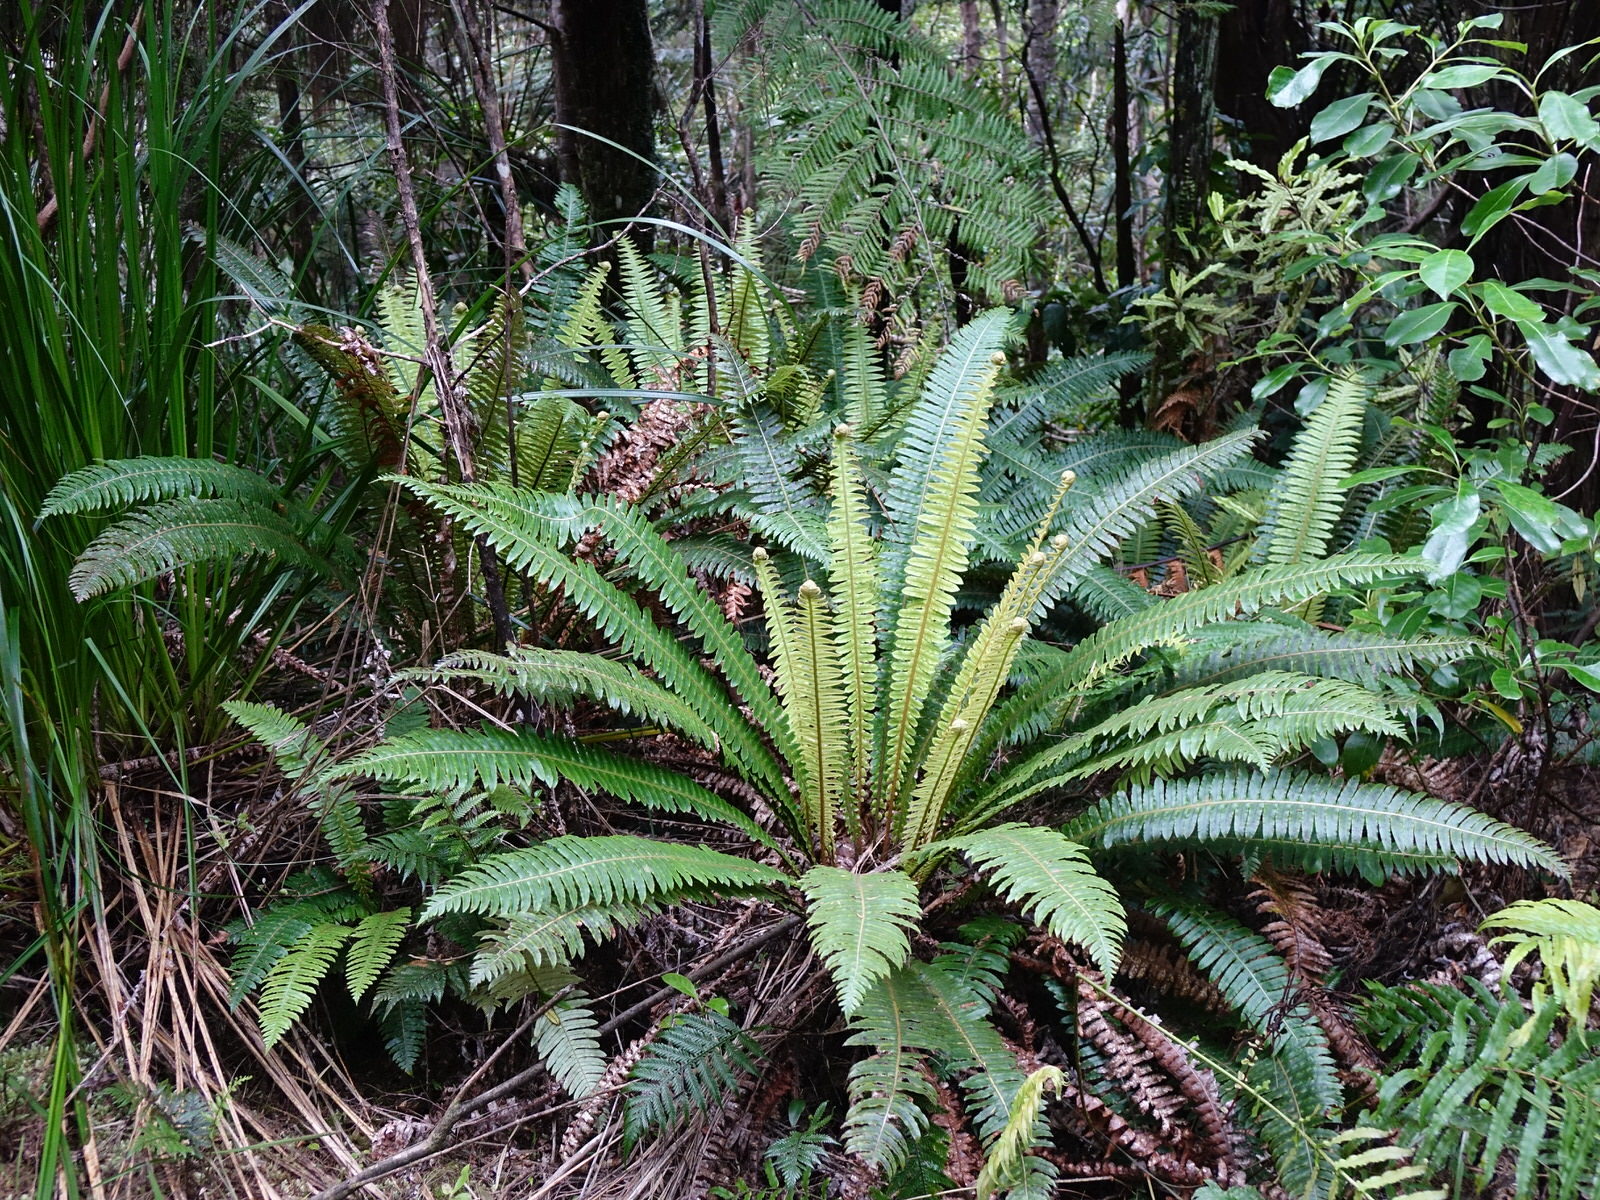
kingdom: Plantae
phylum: Tracheophyta
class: Polypodiopsida
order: Polypodiales
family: Blechnaceae
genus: Lomaria
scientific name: Lomaria discolor
